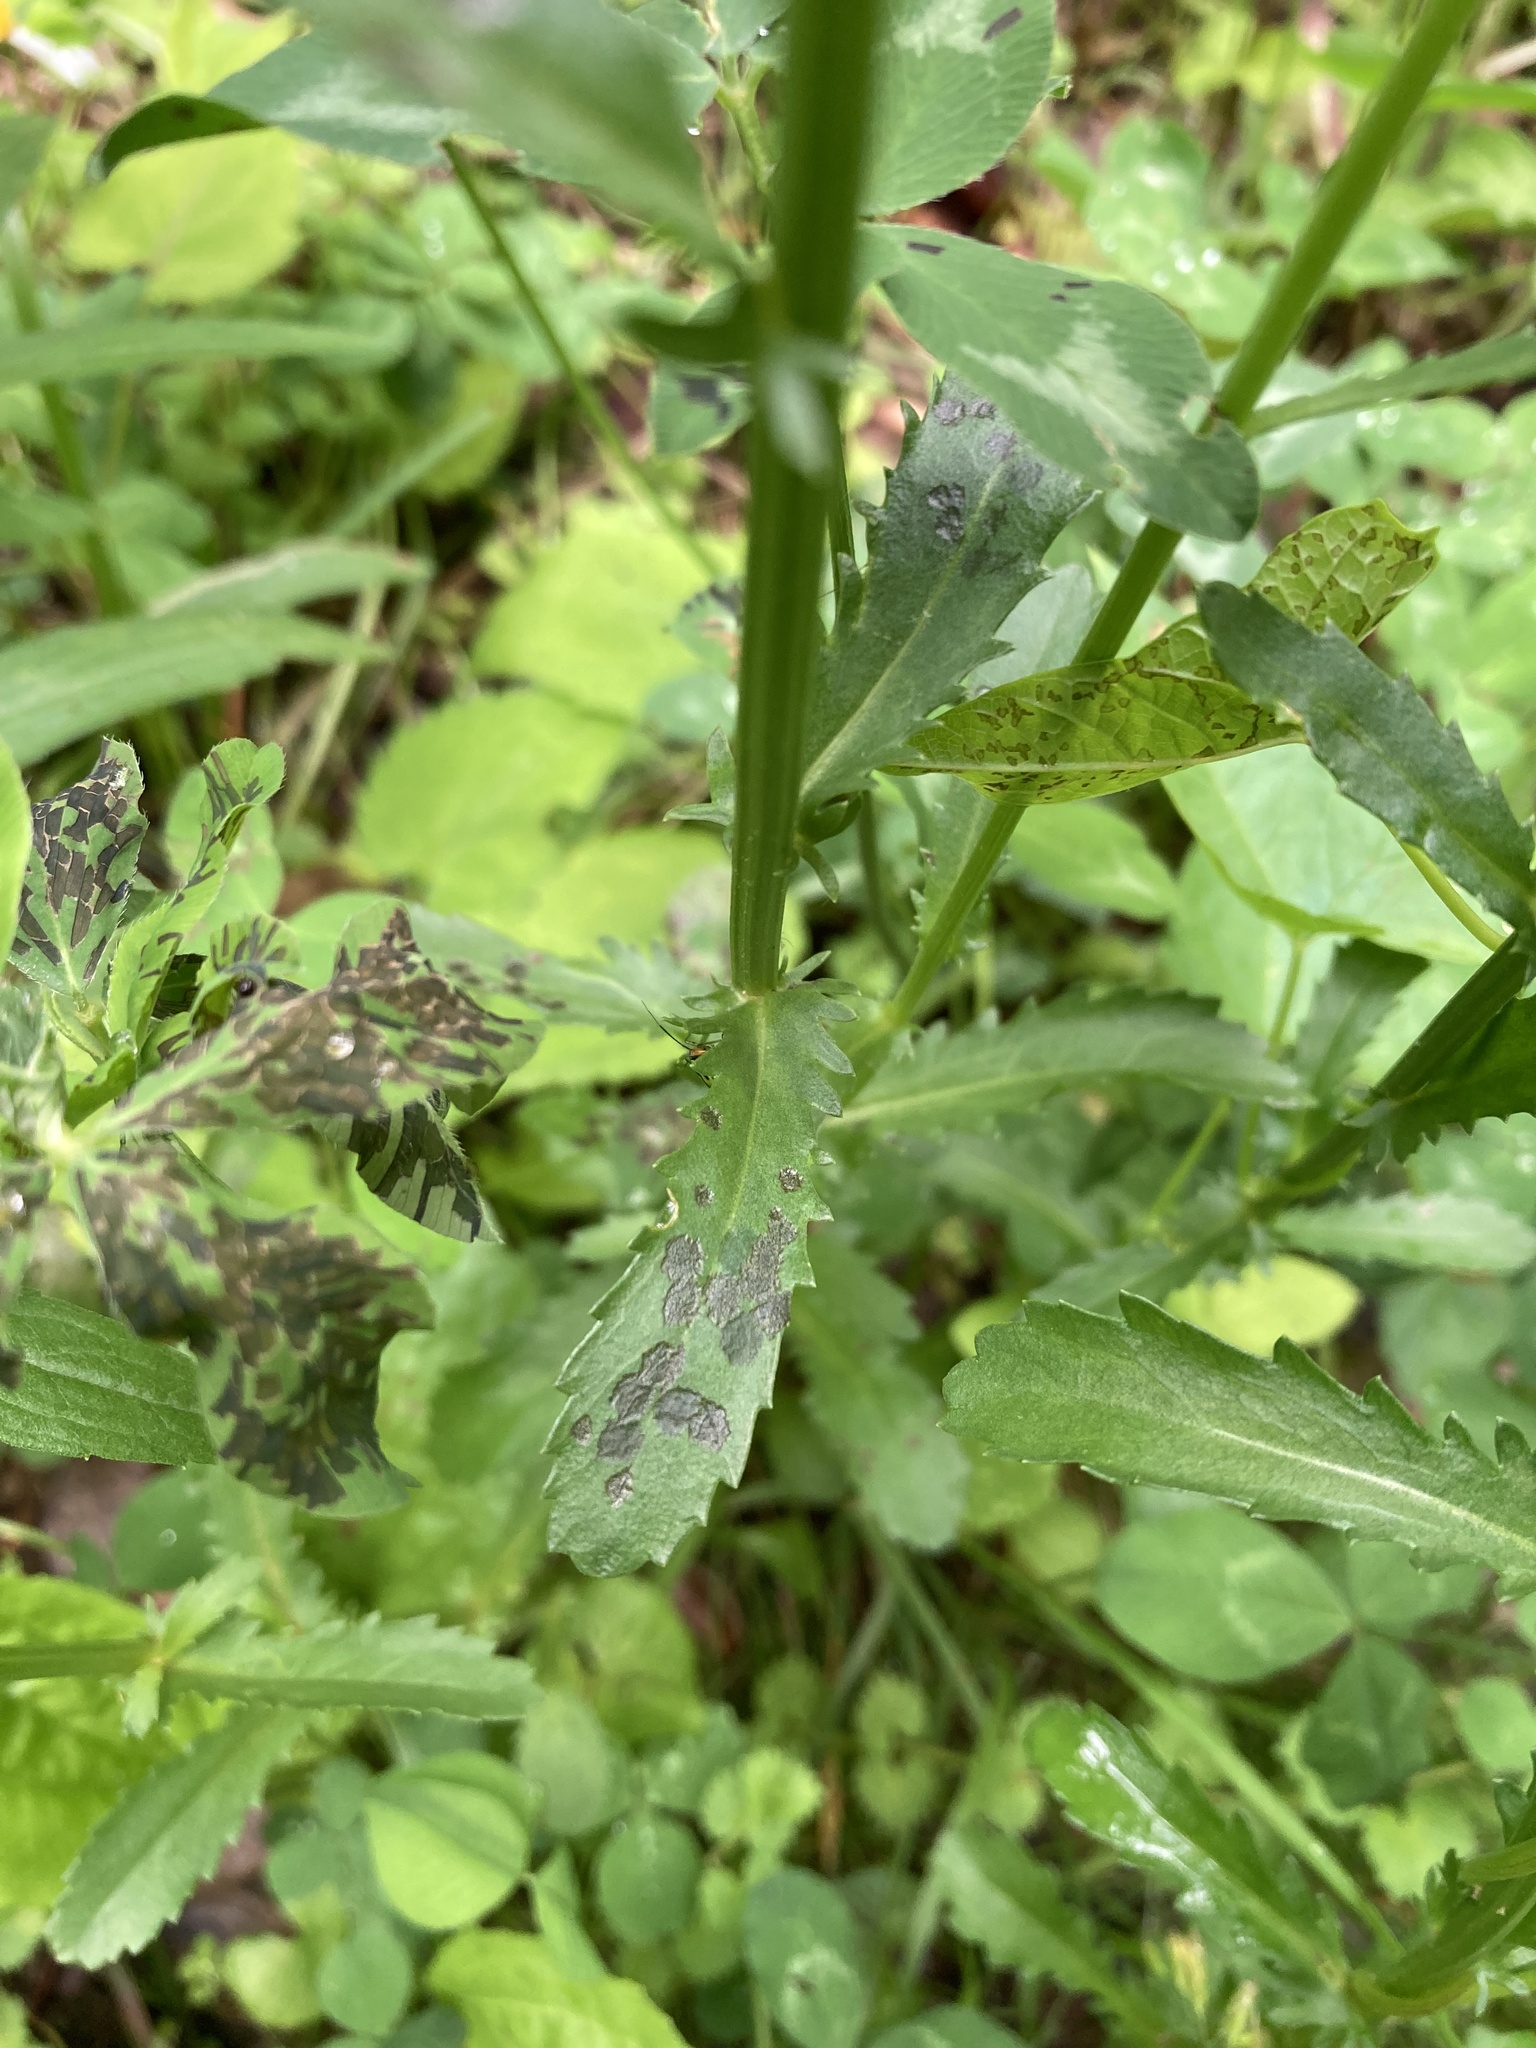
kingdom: Plantae
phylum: Tracheophyta
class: Magnoliopsida
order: Asterales
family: Asteraceae
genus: Leucanthemum
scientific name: Leucanthemum vulgare
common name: Oxeye daisy
